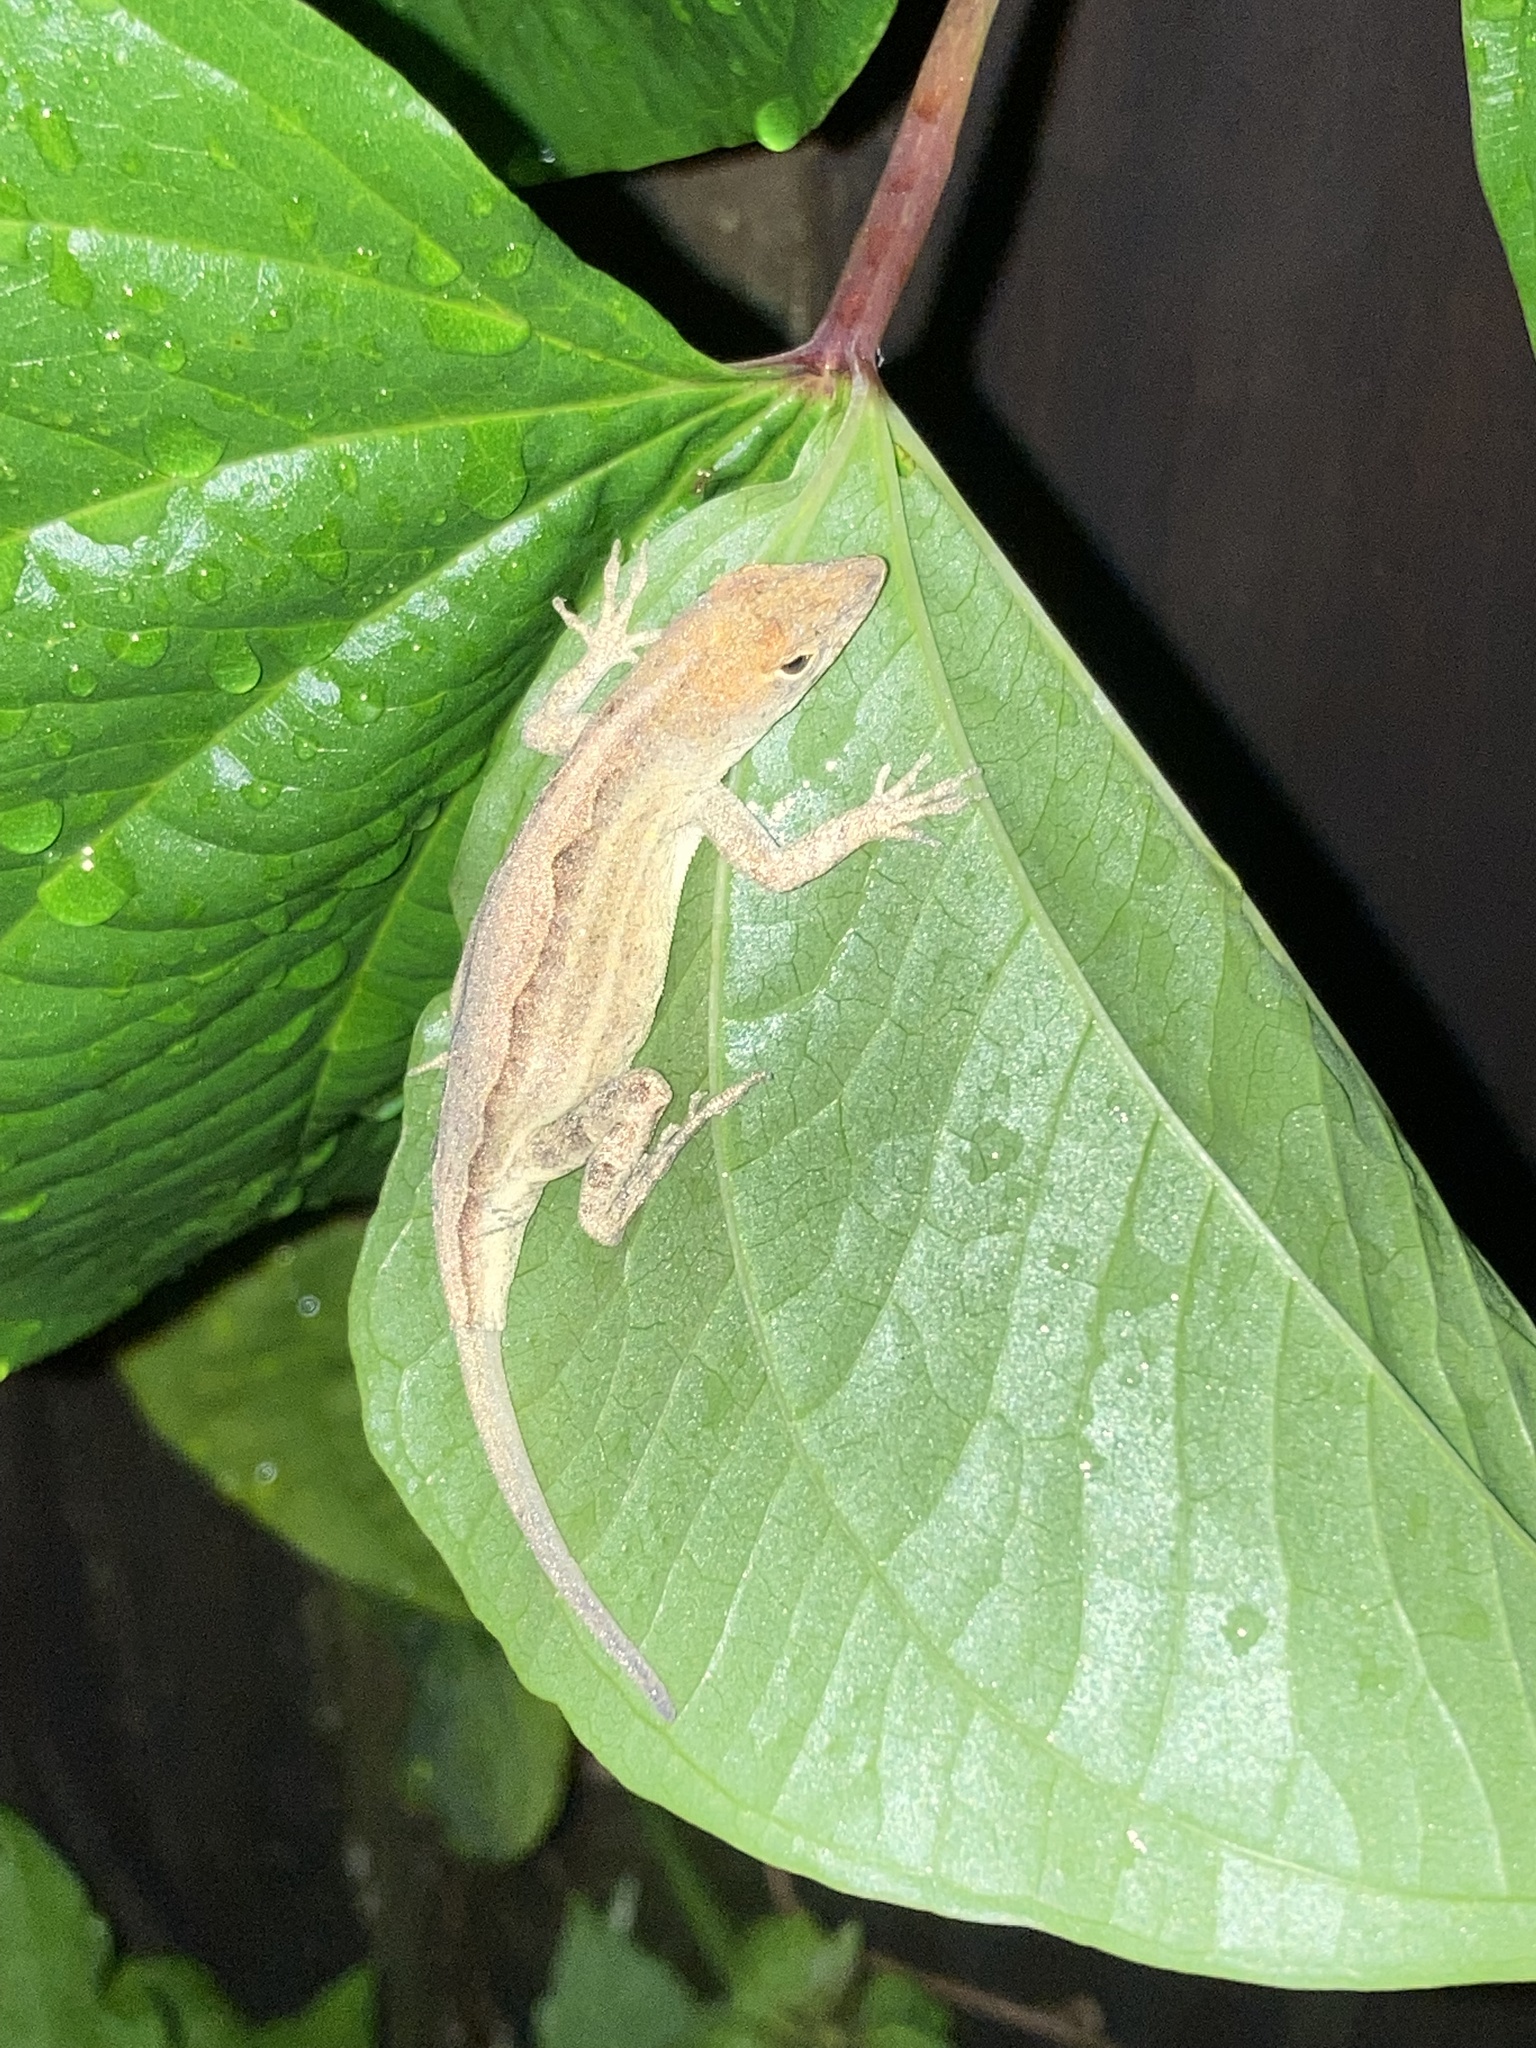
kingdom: Animalia
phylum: Chordata
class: Squamata
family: Dactyloidae
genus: Anolis
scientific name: Anolis sagrei
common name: Brown anole
